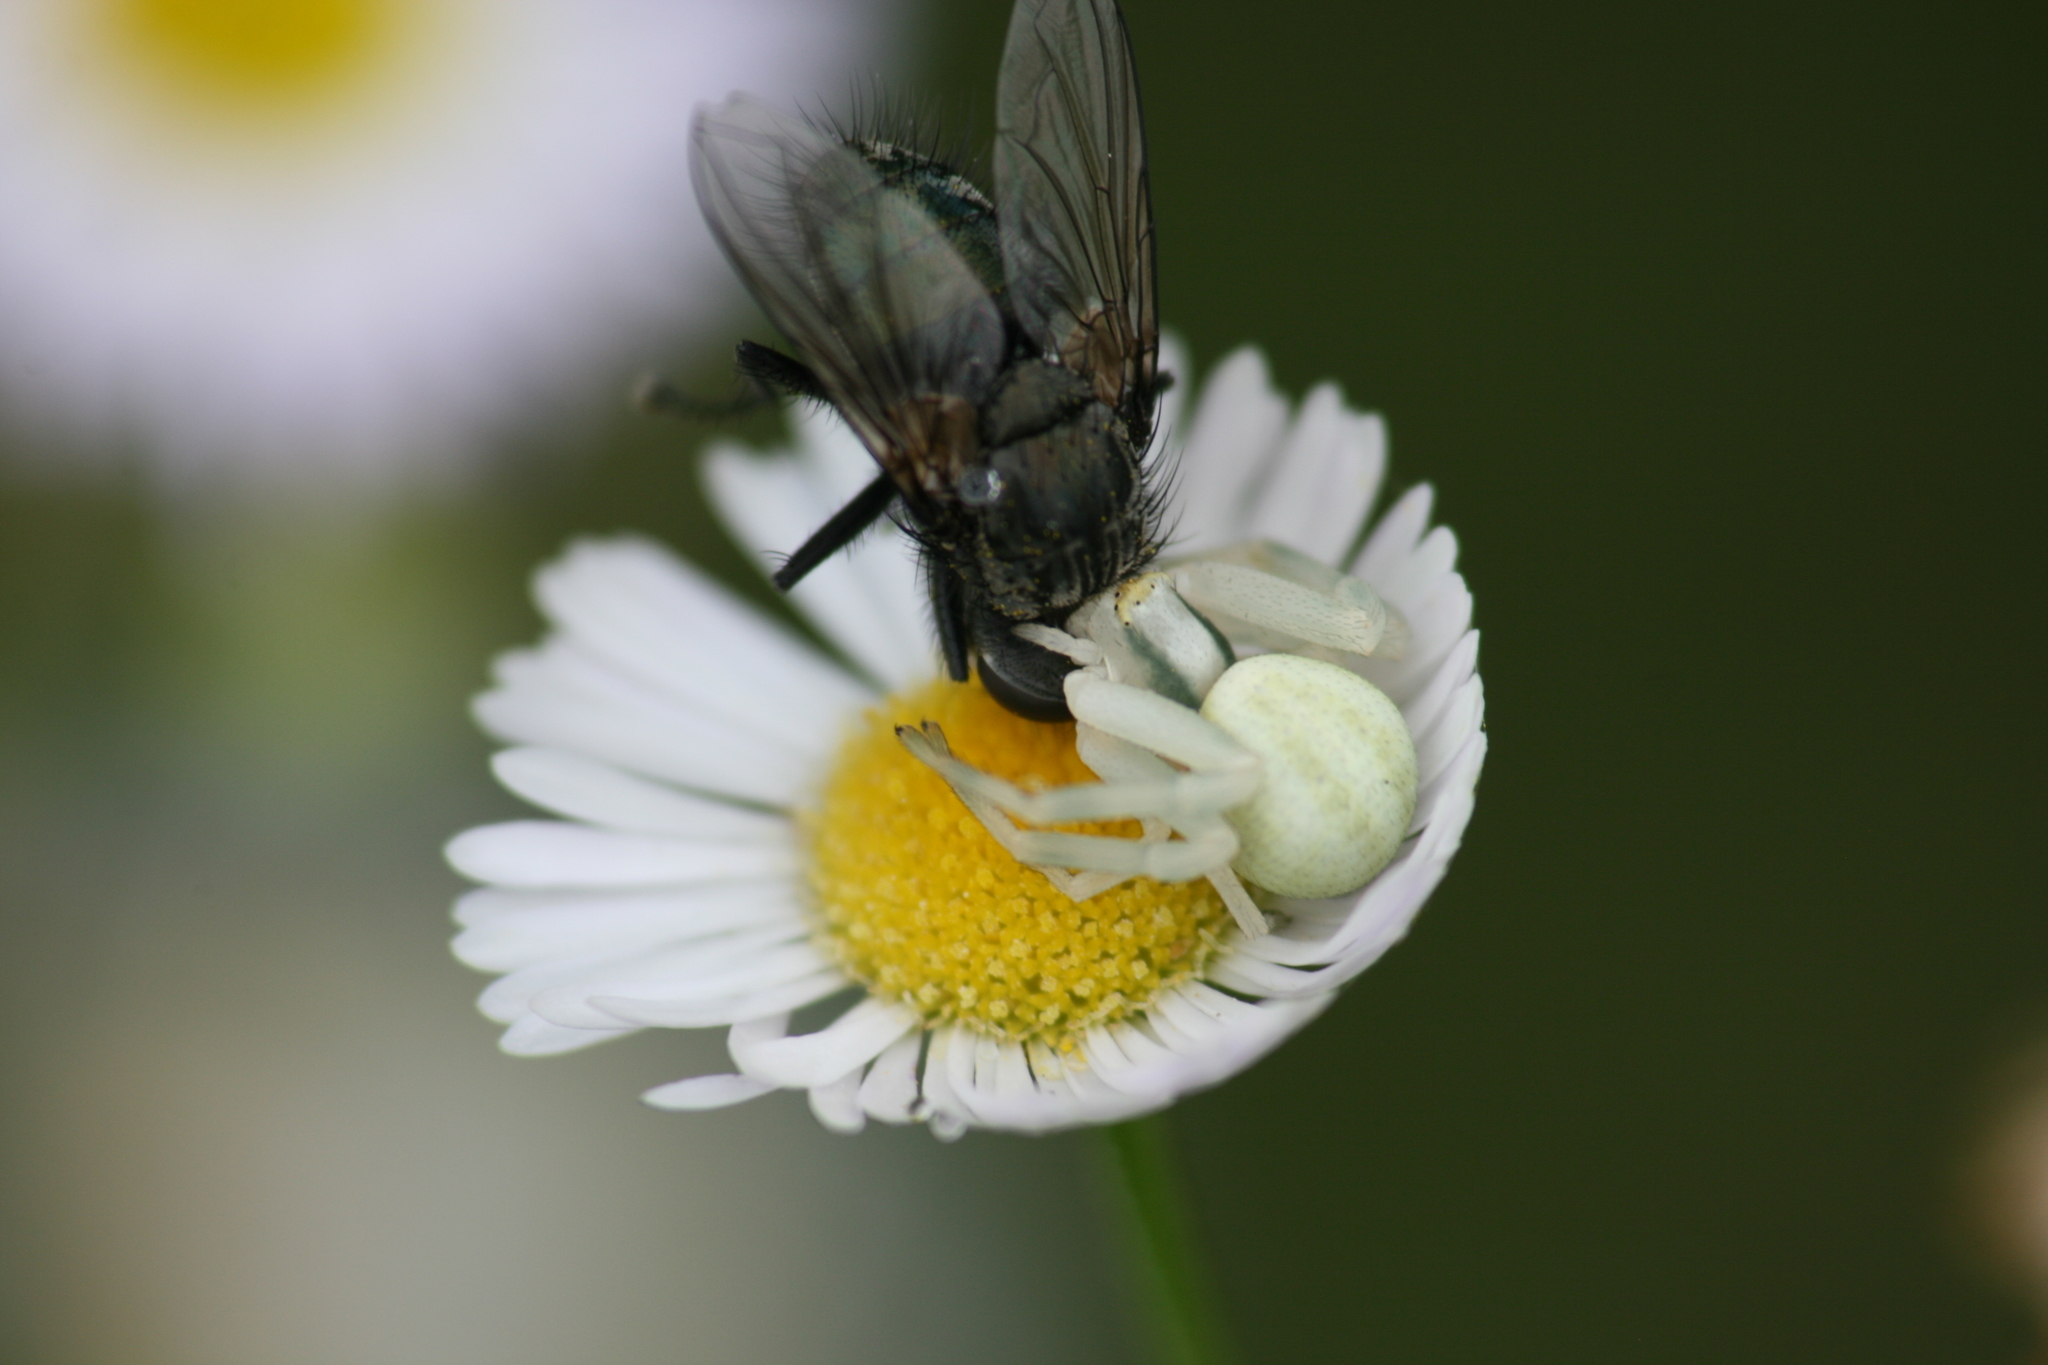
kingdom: Animalia
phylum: Arthropoda
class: Arachnida
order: Araneae
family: Thomisidae
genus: Misumena
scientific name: Misumena vatia
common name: Goldenrod crab spider
